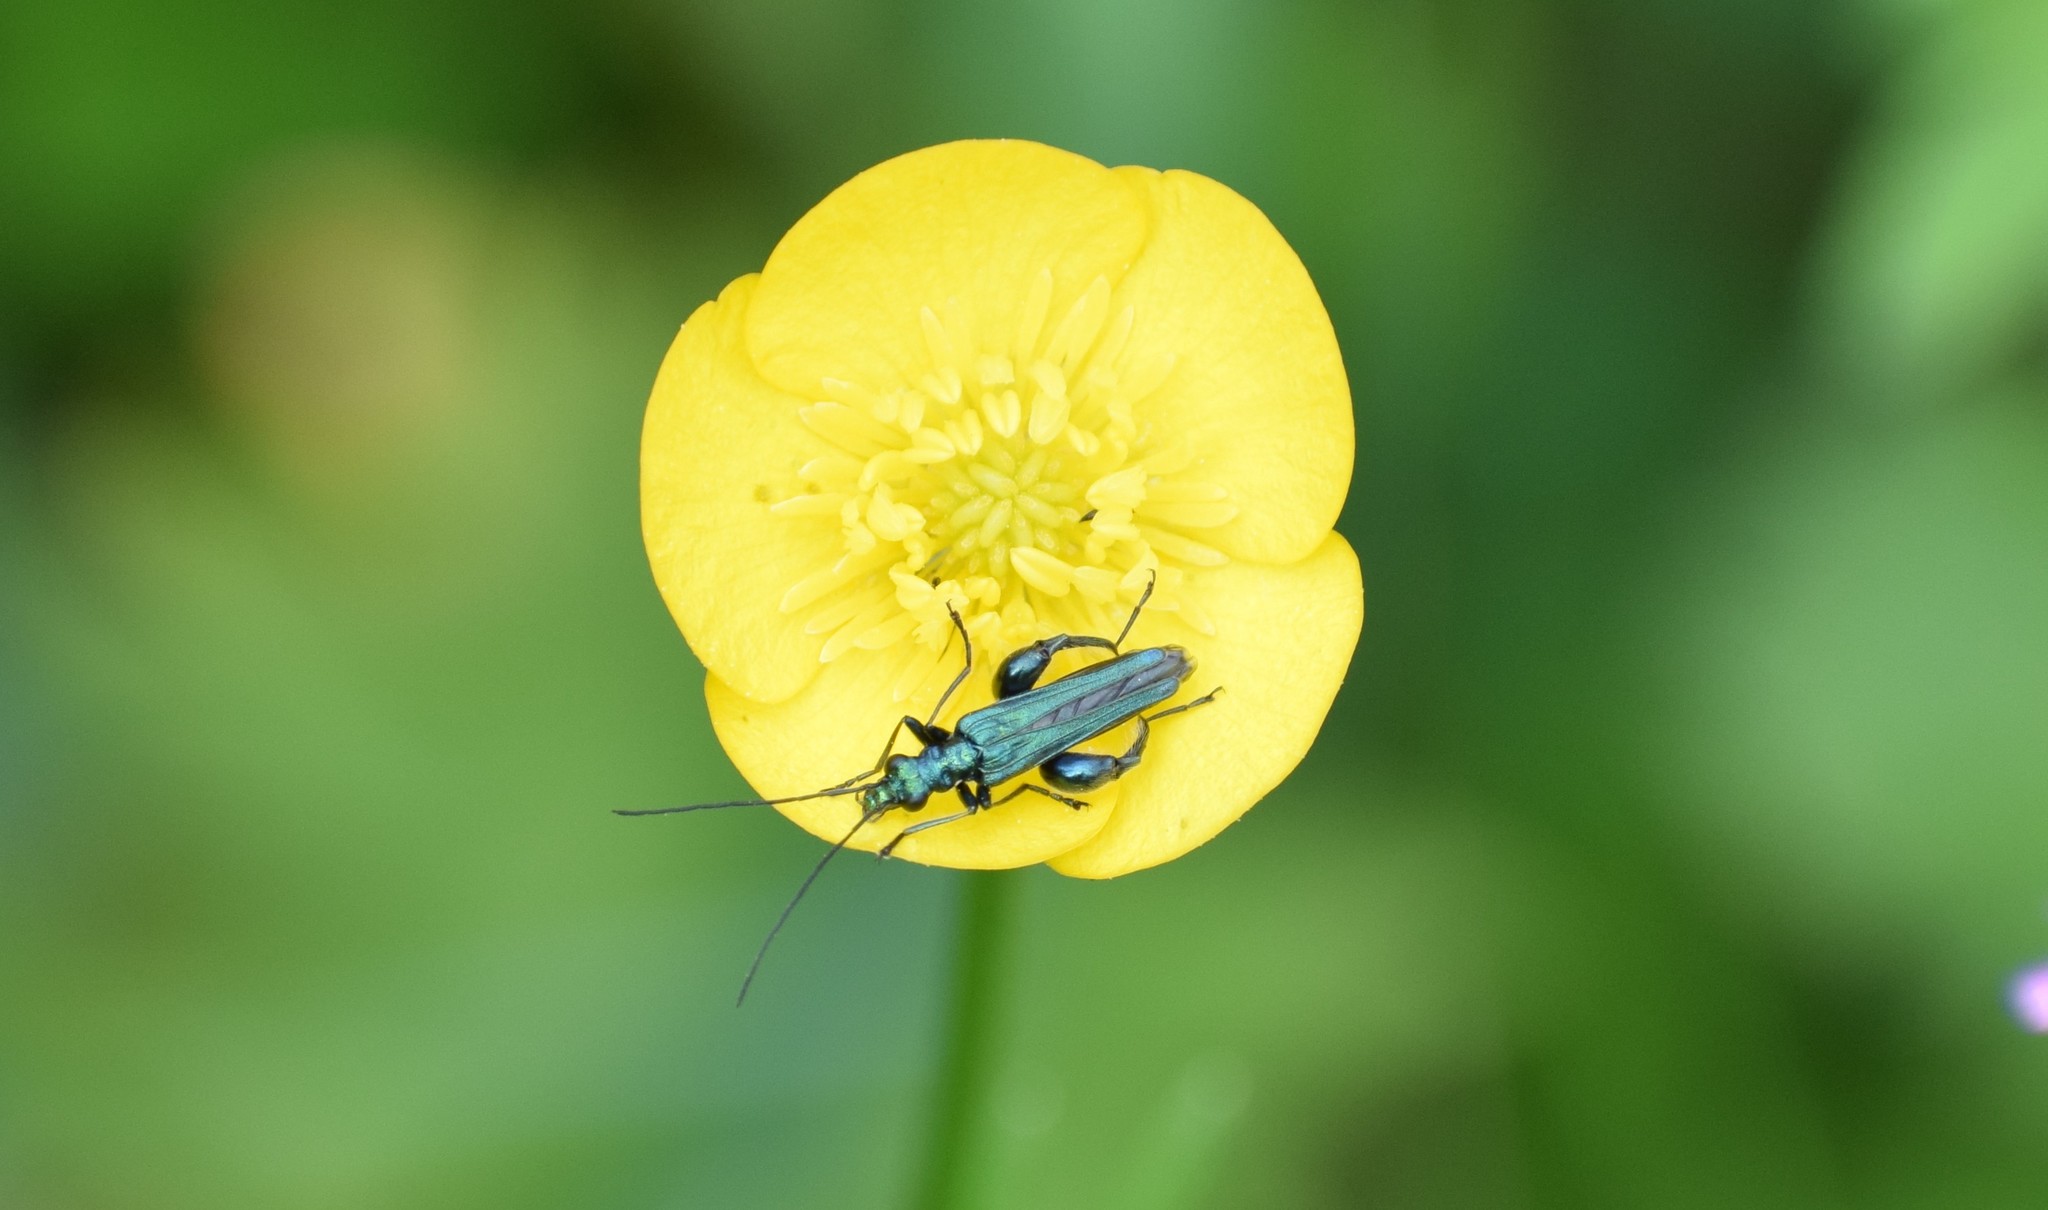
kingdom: Animalia
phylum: Arthropoda
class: Insecta
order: Coleoptera
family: Oedemeridae
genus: Oedemera
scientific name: Oedemera nobilis
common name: Swollen-thighed beetle
